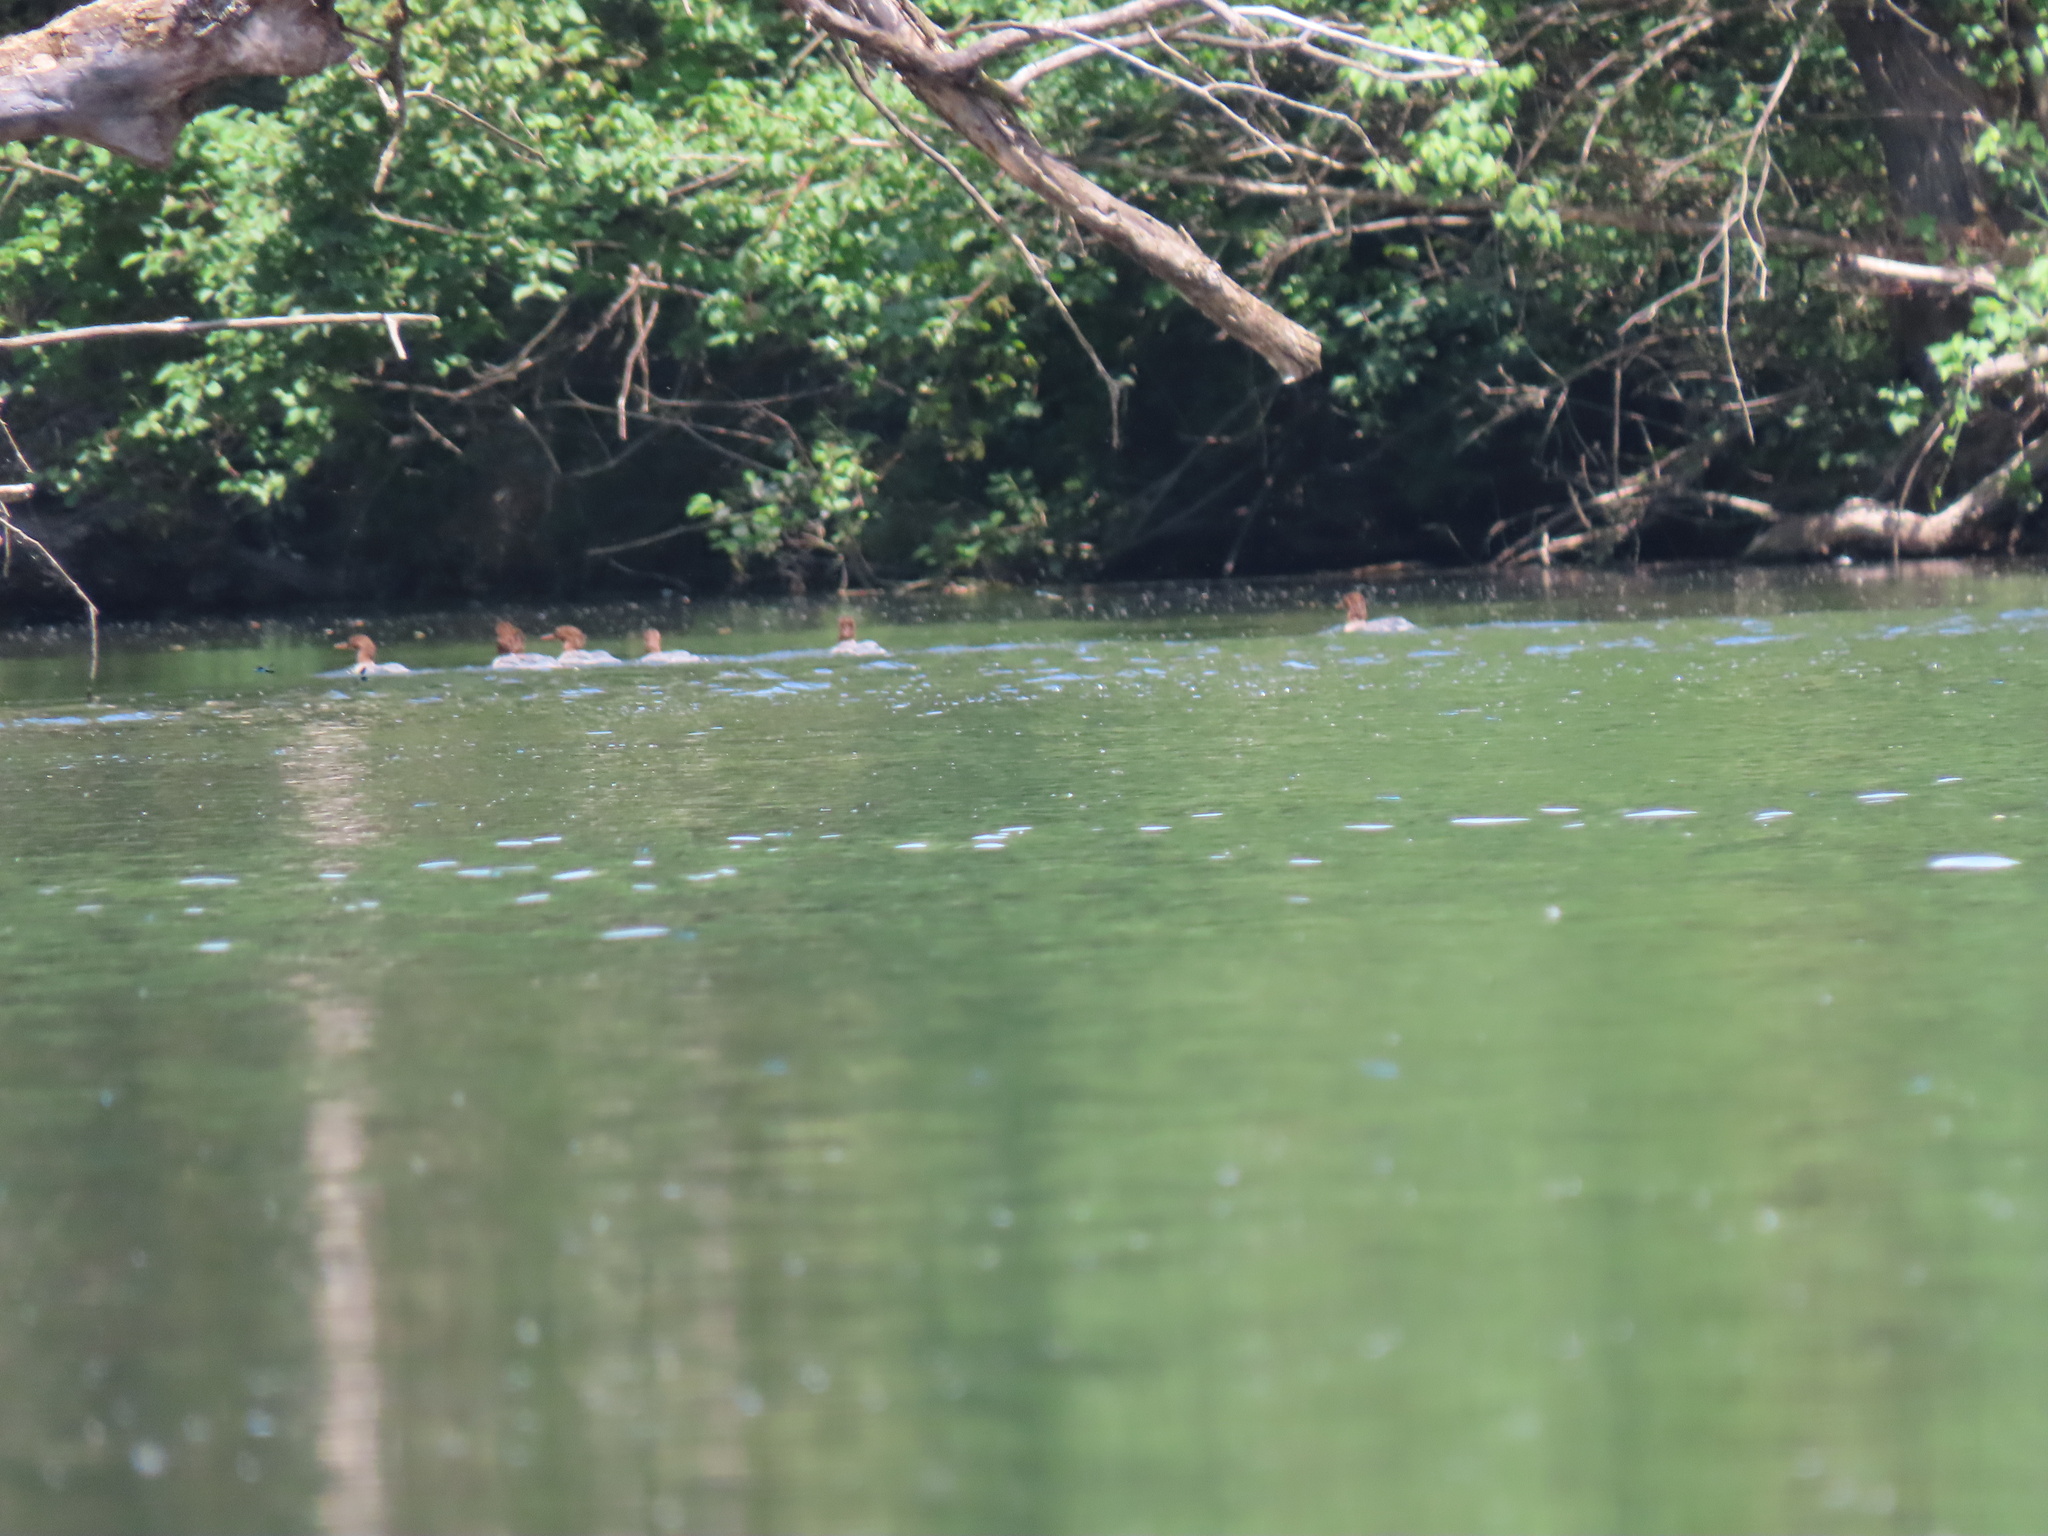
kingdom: Animalia
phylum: Chordata
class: Aves
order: Anseriformes
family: Anatidae
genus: Mergus
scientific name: Mergus merganser
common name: Common merganser
